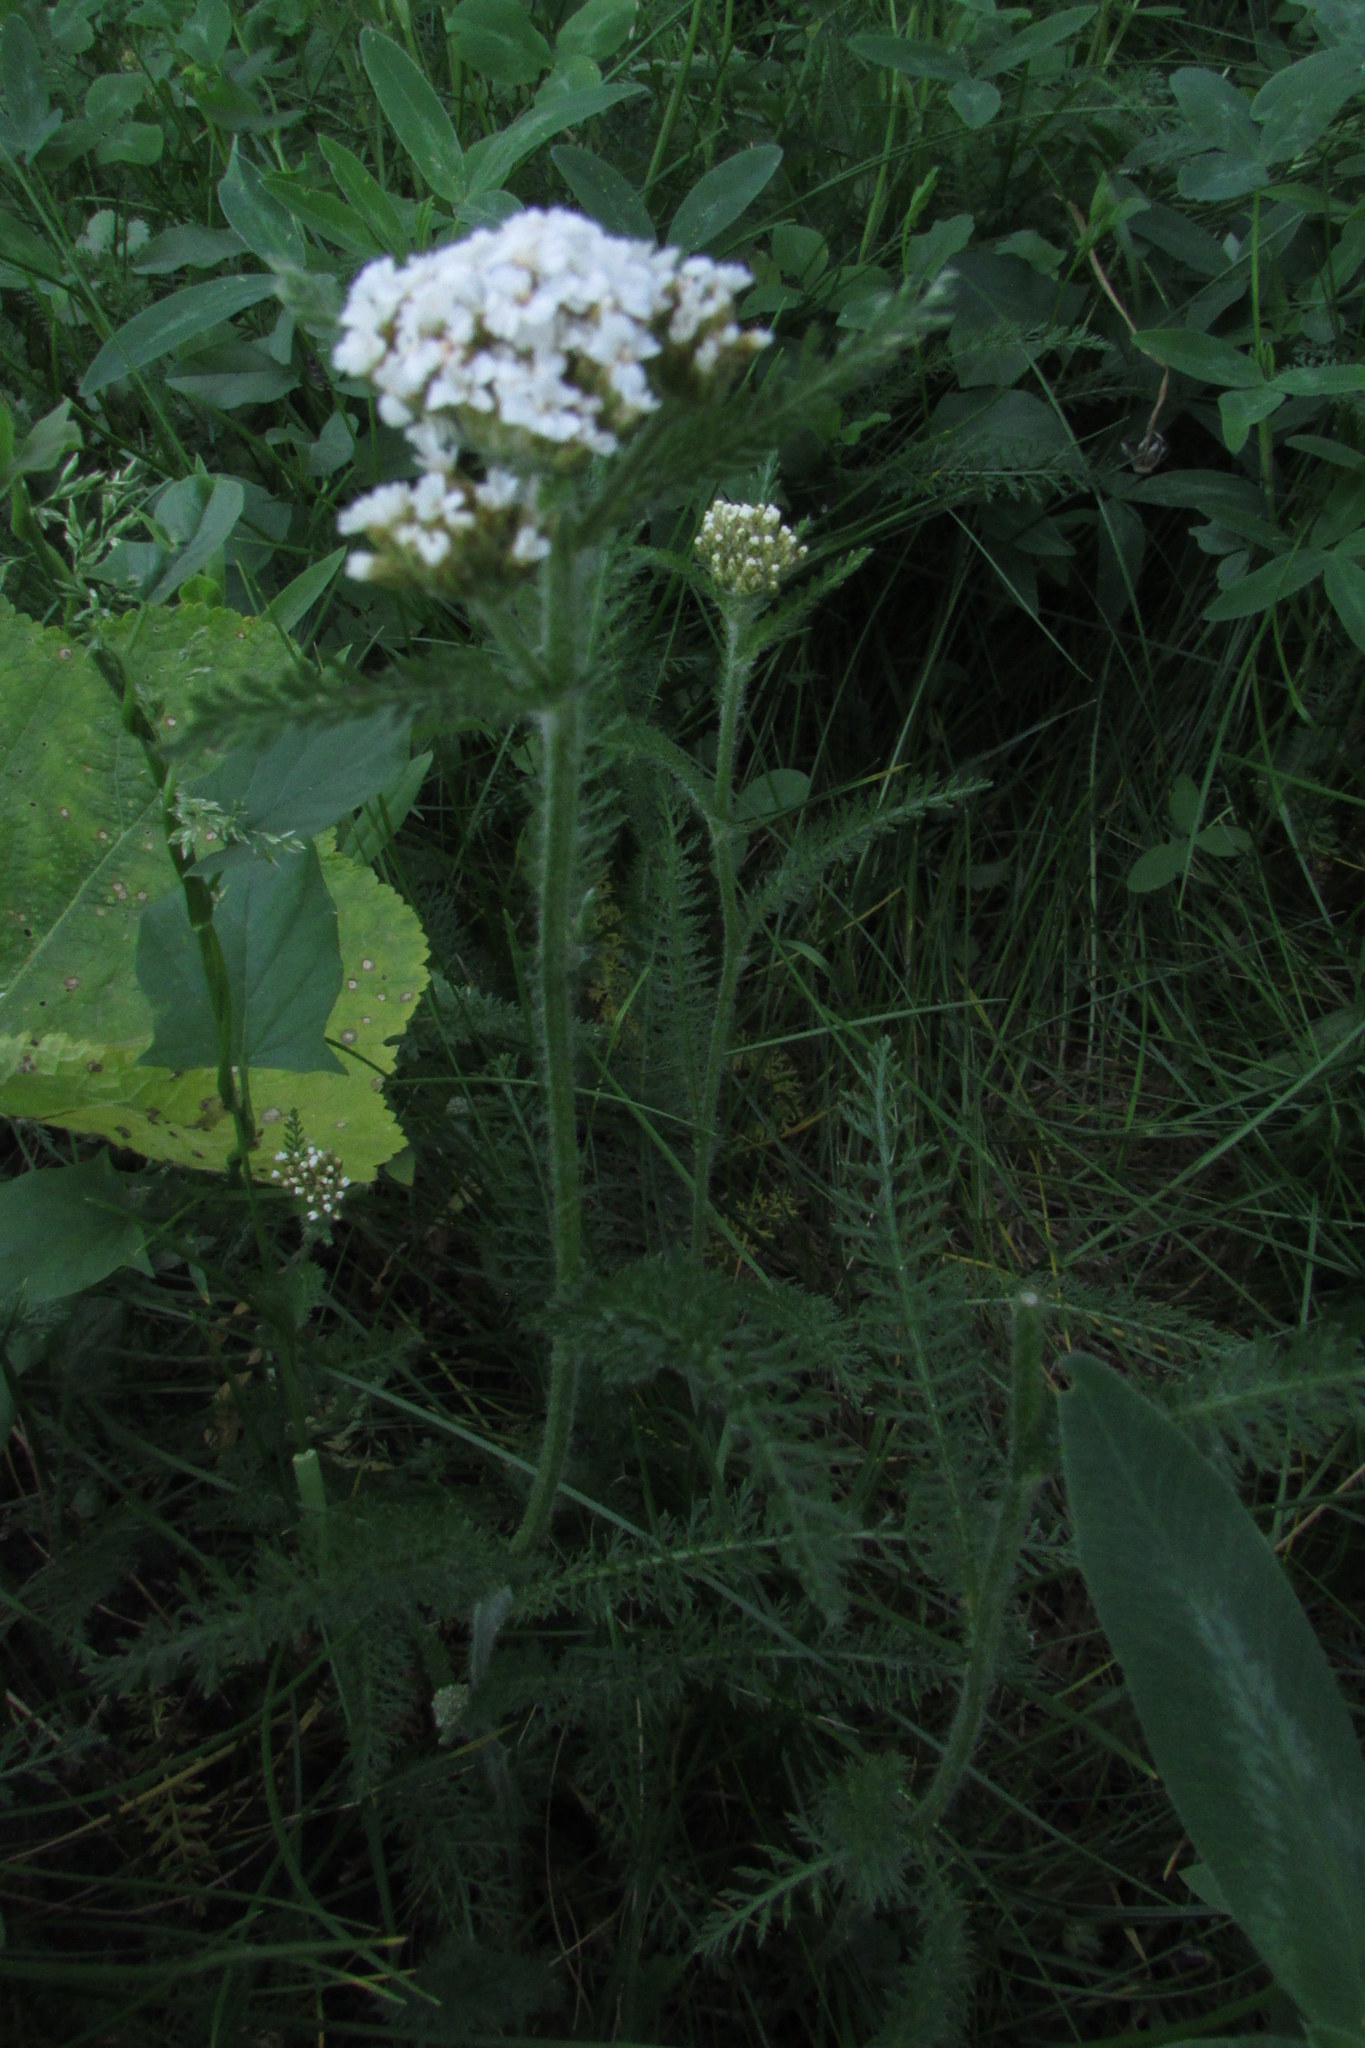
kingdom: Plantae
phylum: Tracheophyta
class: Magnoliopsida
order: Asterales
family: Asteraceae
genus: Achillea
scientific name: Achillea millefolium
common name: Yarrow
